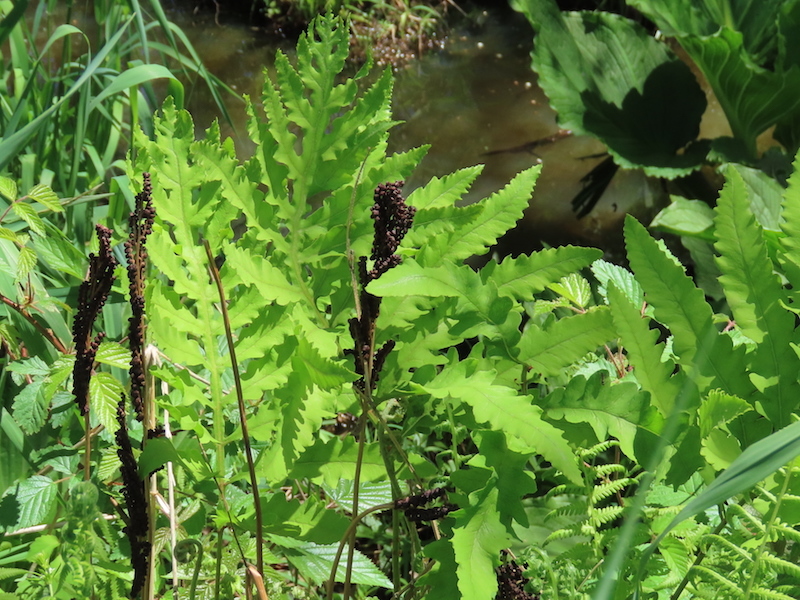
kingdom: Plantae
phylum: Tracheophyta
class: Polypodiopsida
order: Polypodiales
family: Onocleaceae
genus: Onoclea
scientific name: Onoclea sensibilis
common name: Sensitive fern
